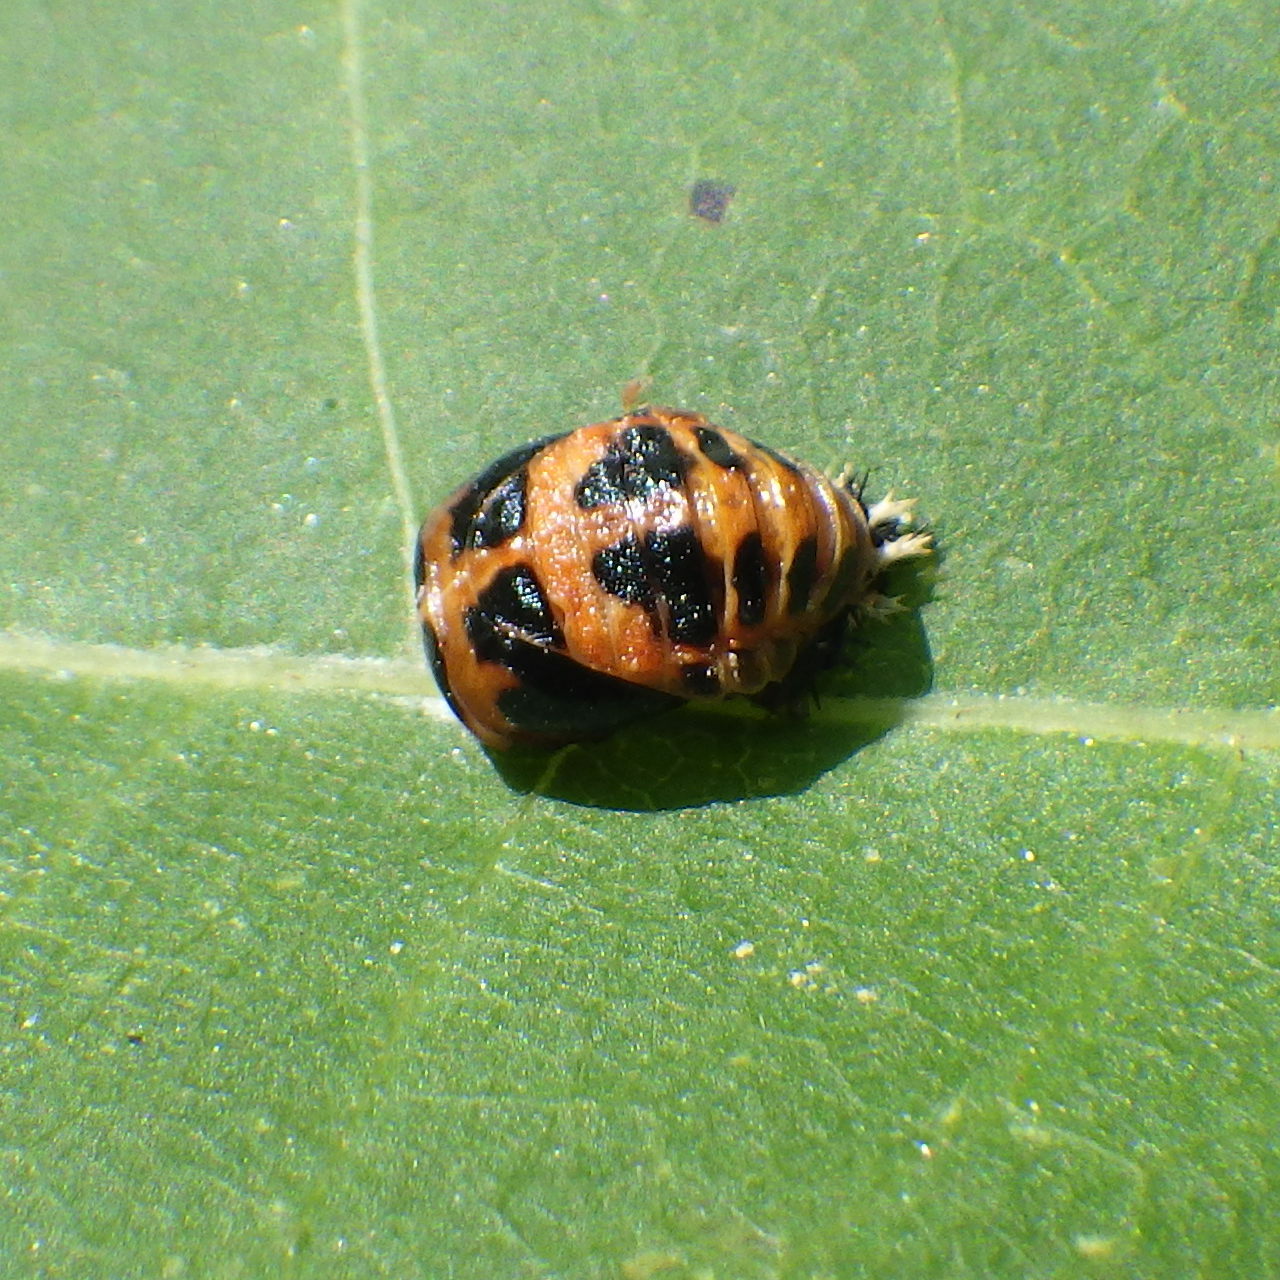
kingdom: Animalia
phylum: Arthropoda
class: Insecta
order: Coleoptera
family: Coccinellidae
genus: Harmonia
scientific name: Harmonia axyridis
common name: Harlequin ladybird
